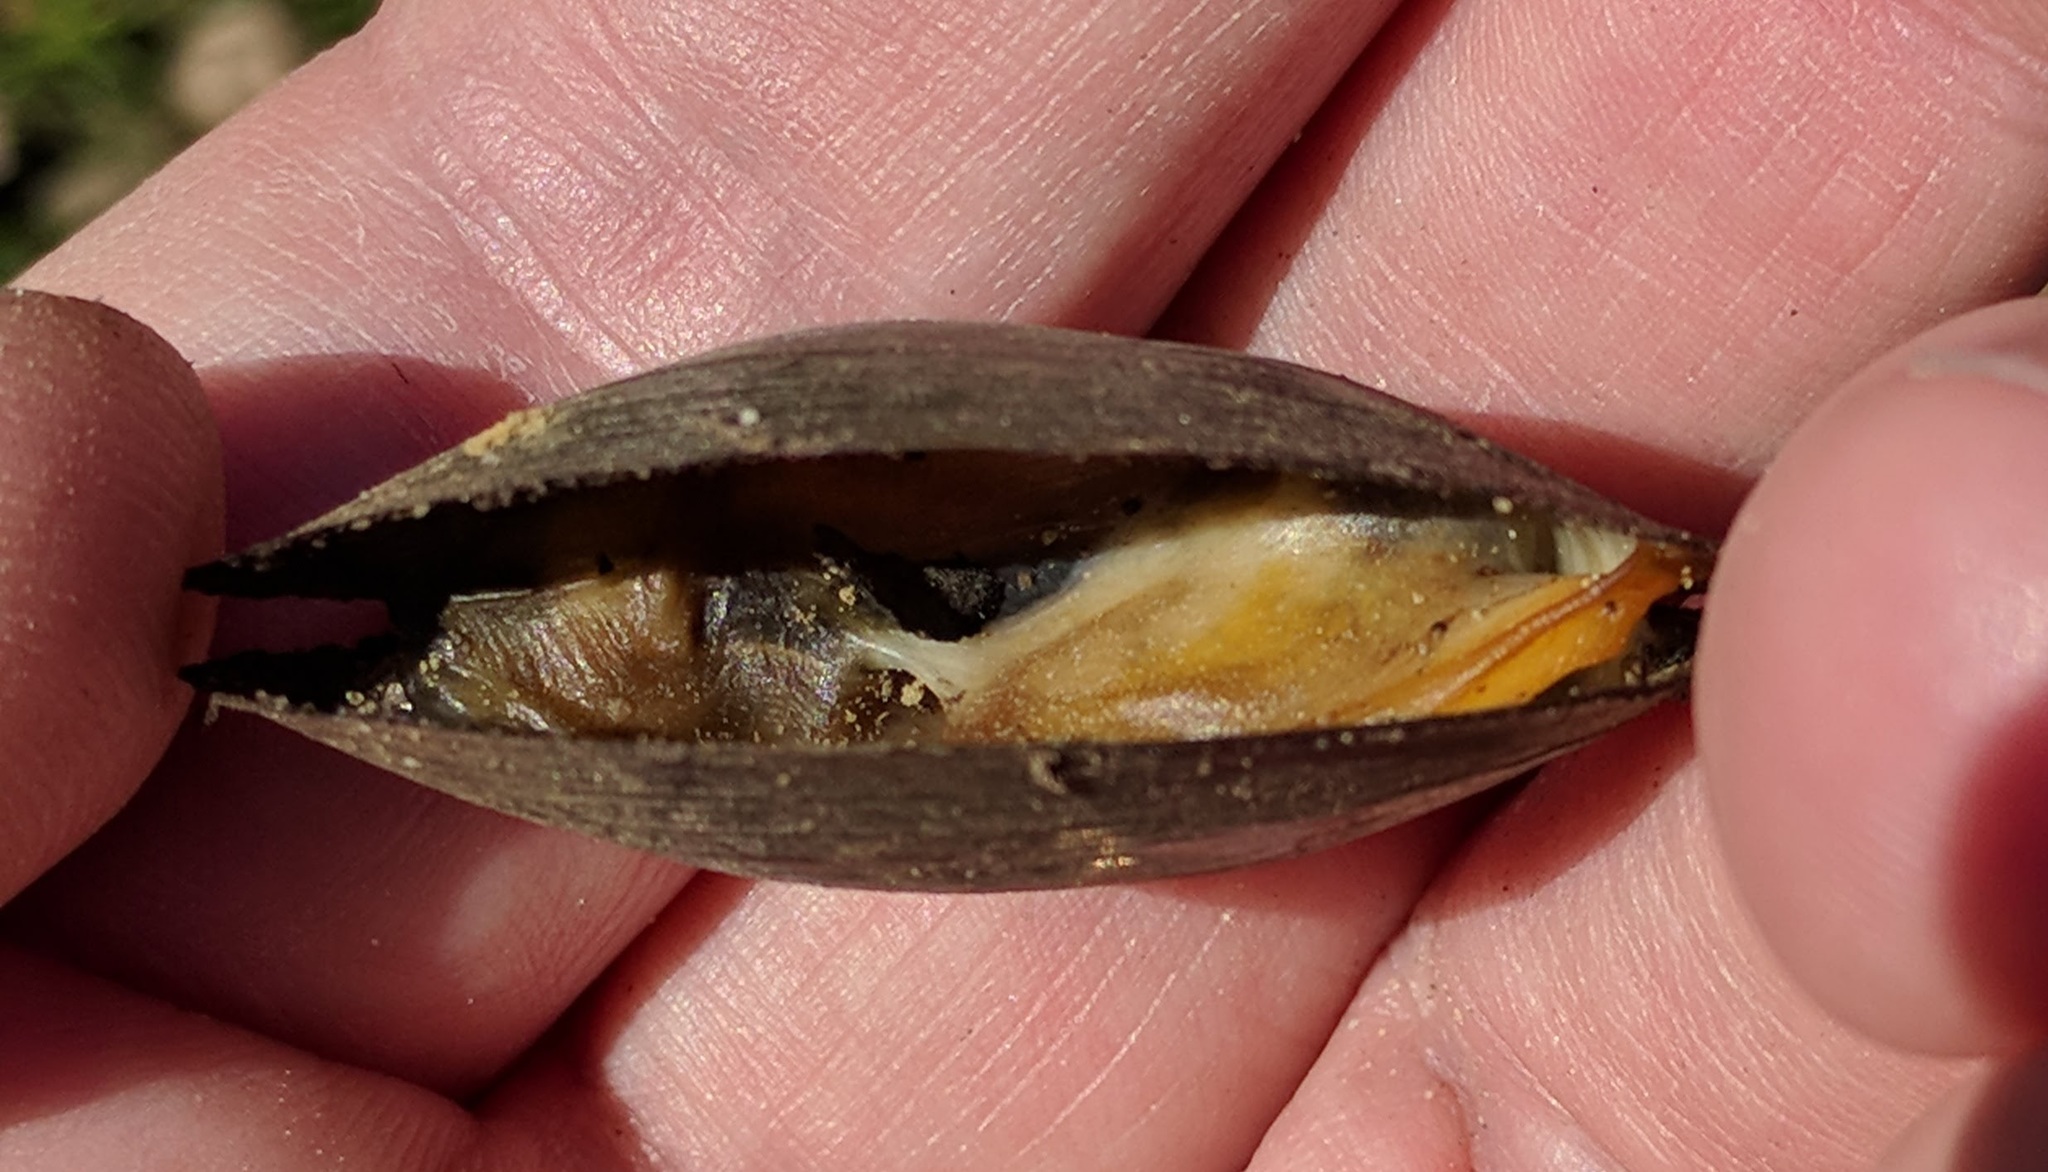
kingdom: Animalia
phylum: Mollusca
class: Bivalvia
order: Unionida
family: Unionidae
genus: Utterbackia
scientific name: Utterbackia imbecillis
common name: Paper pondshell
